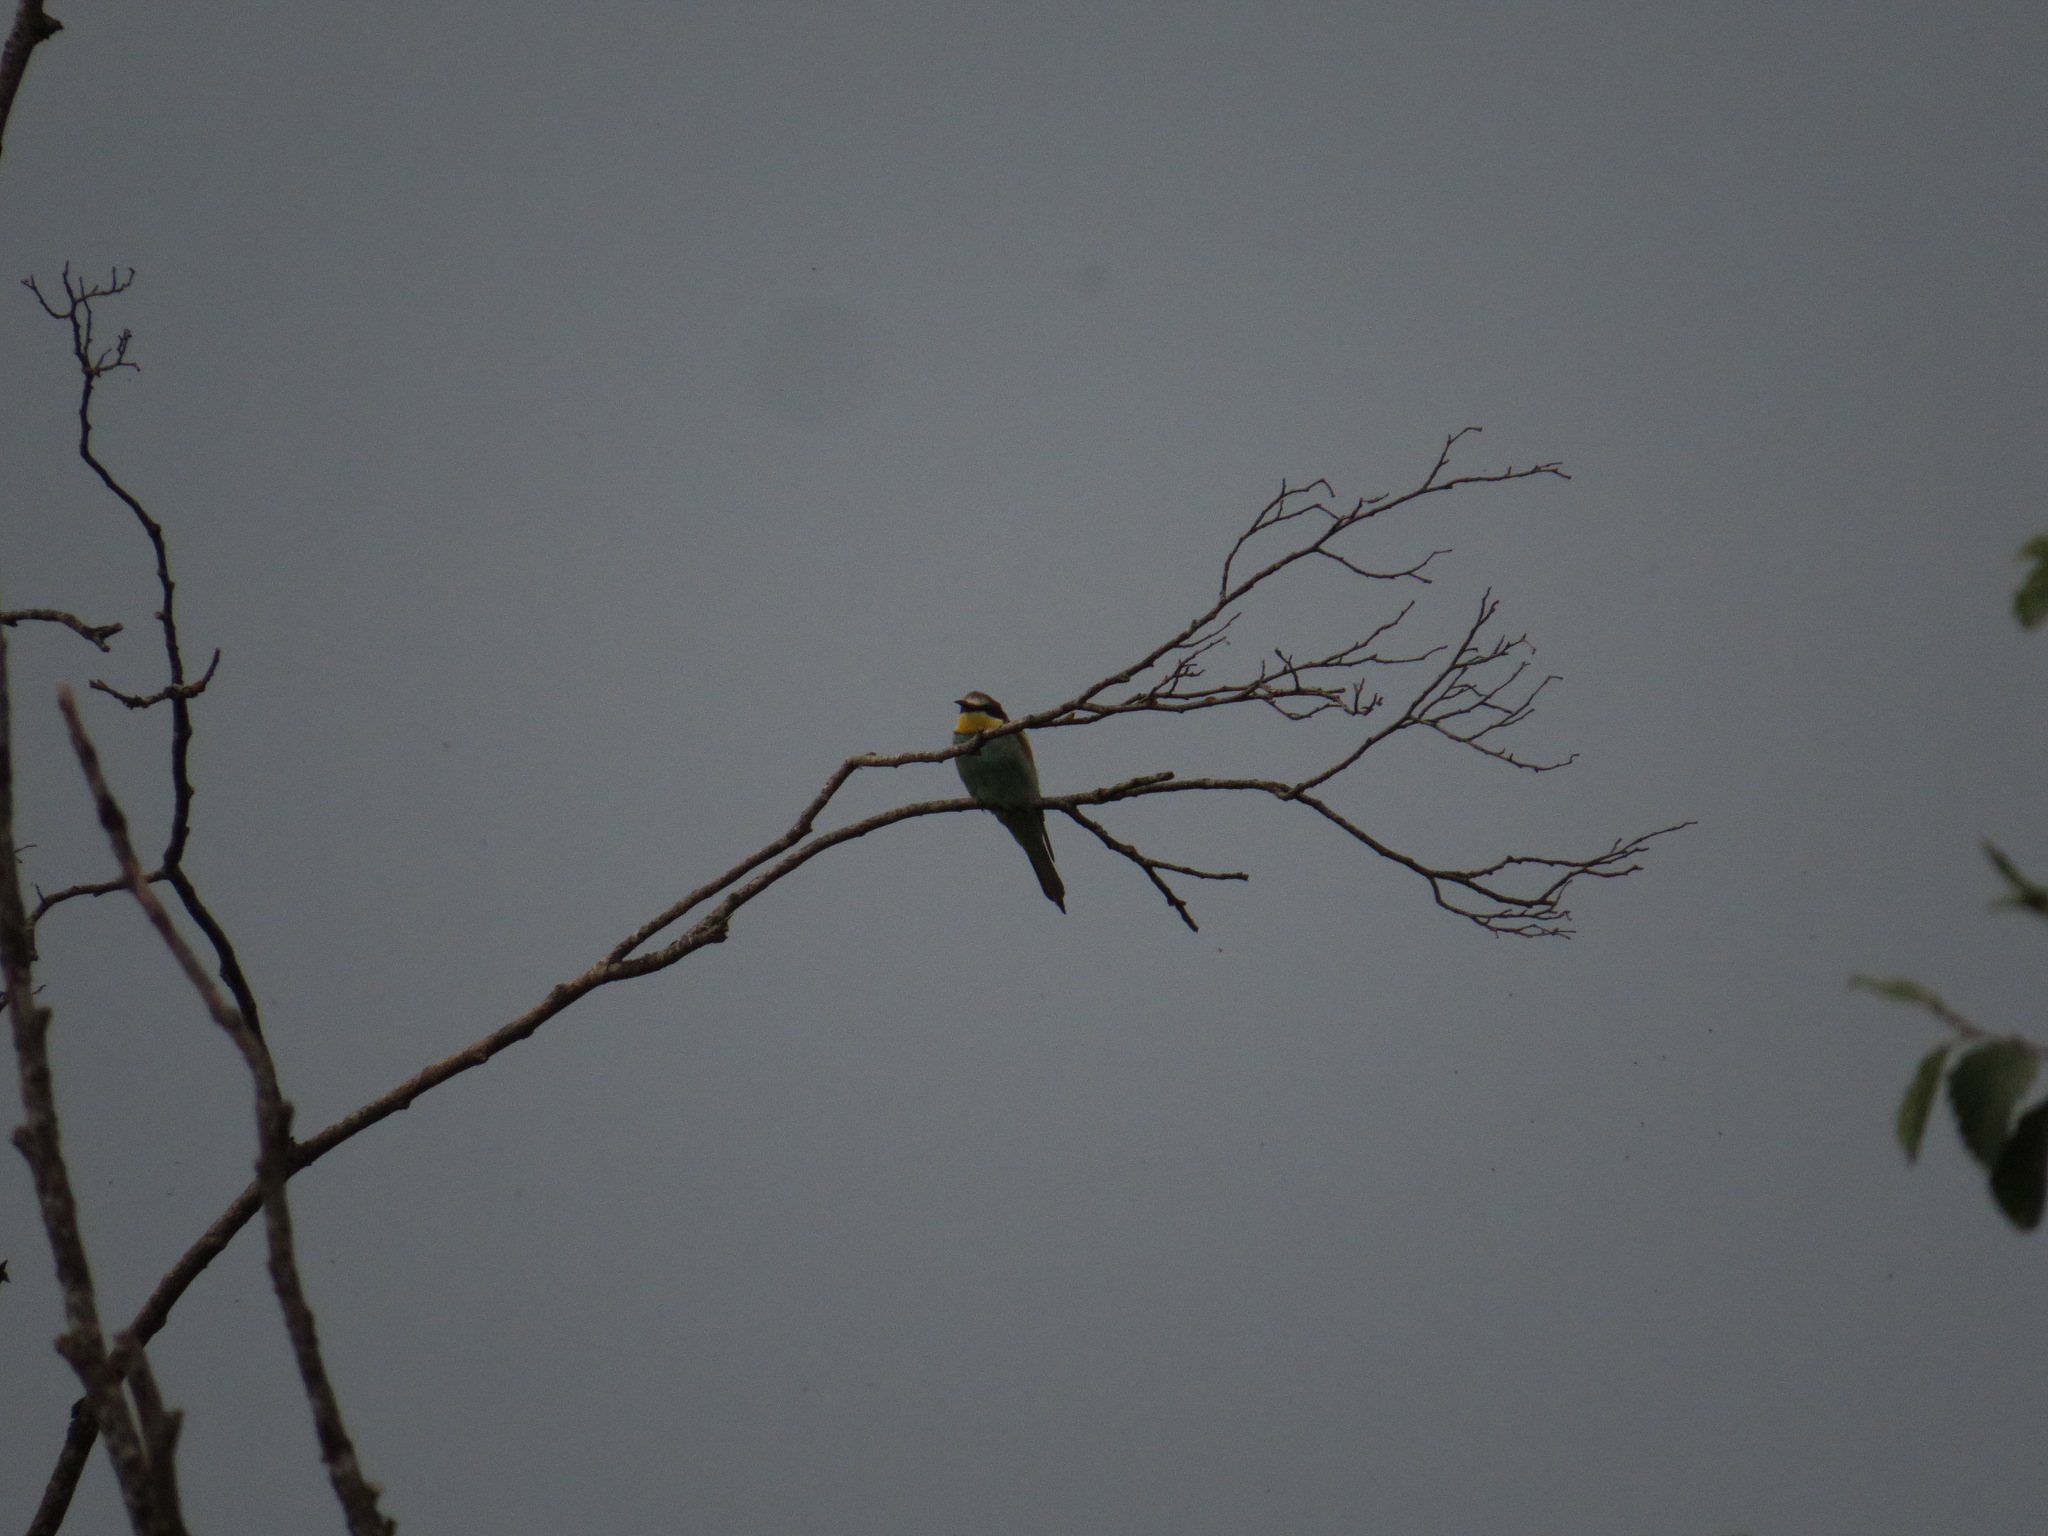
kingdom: Animalia
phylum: Chordata
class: Aves
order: Coraciiformes
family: Meropidae
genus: Merops
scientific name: Merops apiaster
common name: European bee-eater
